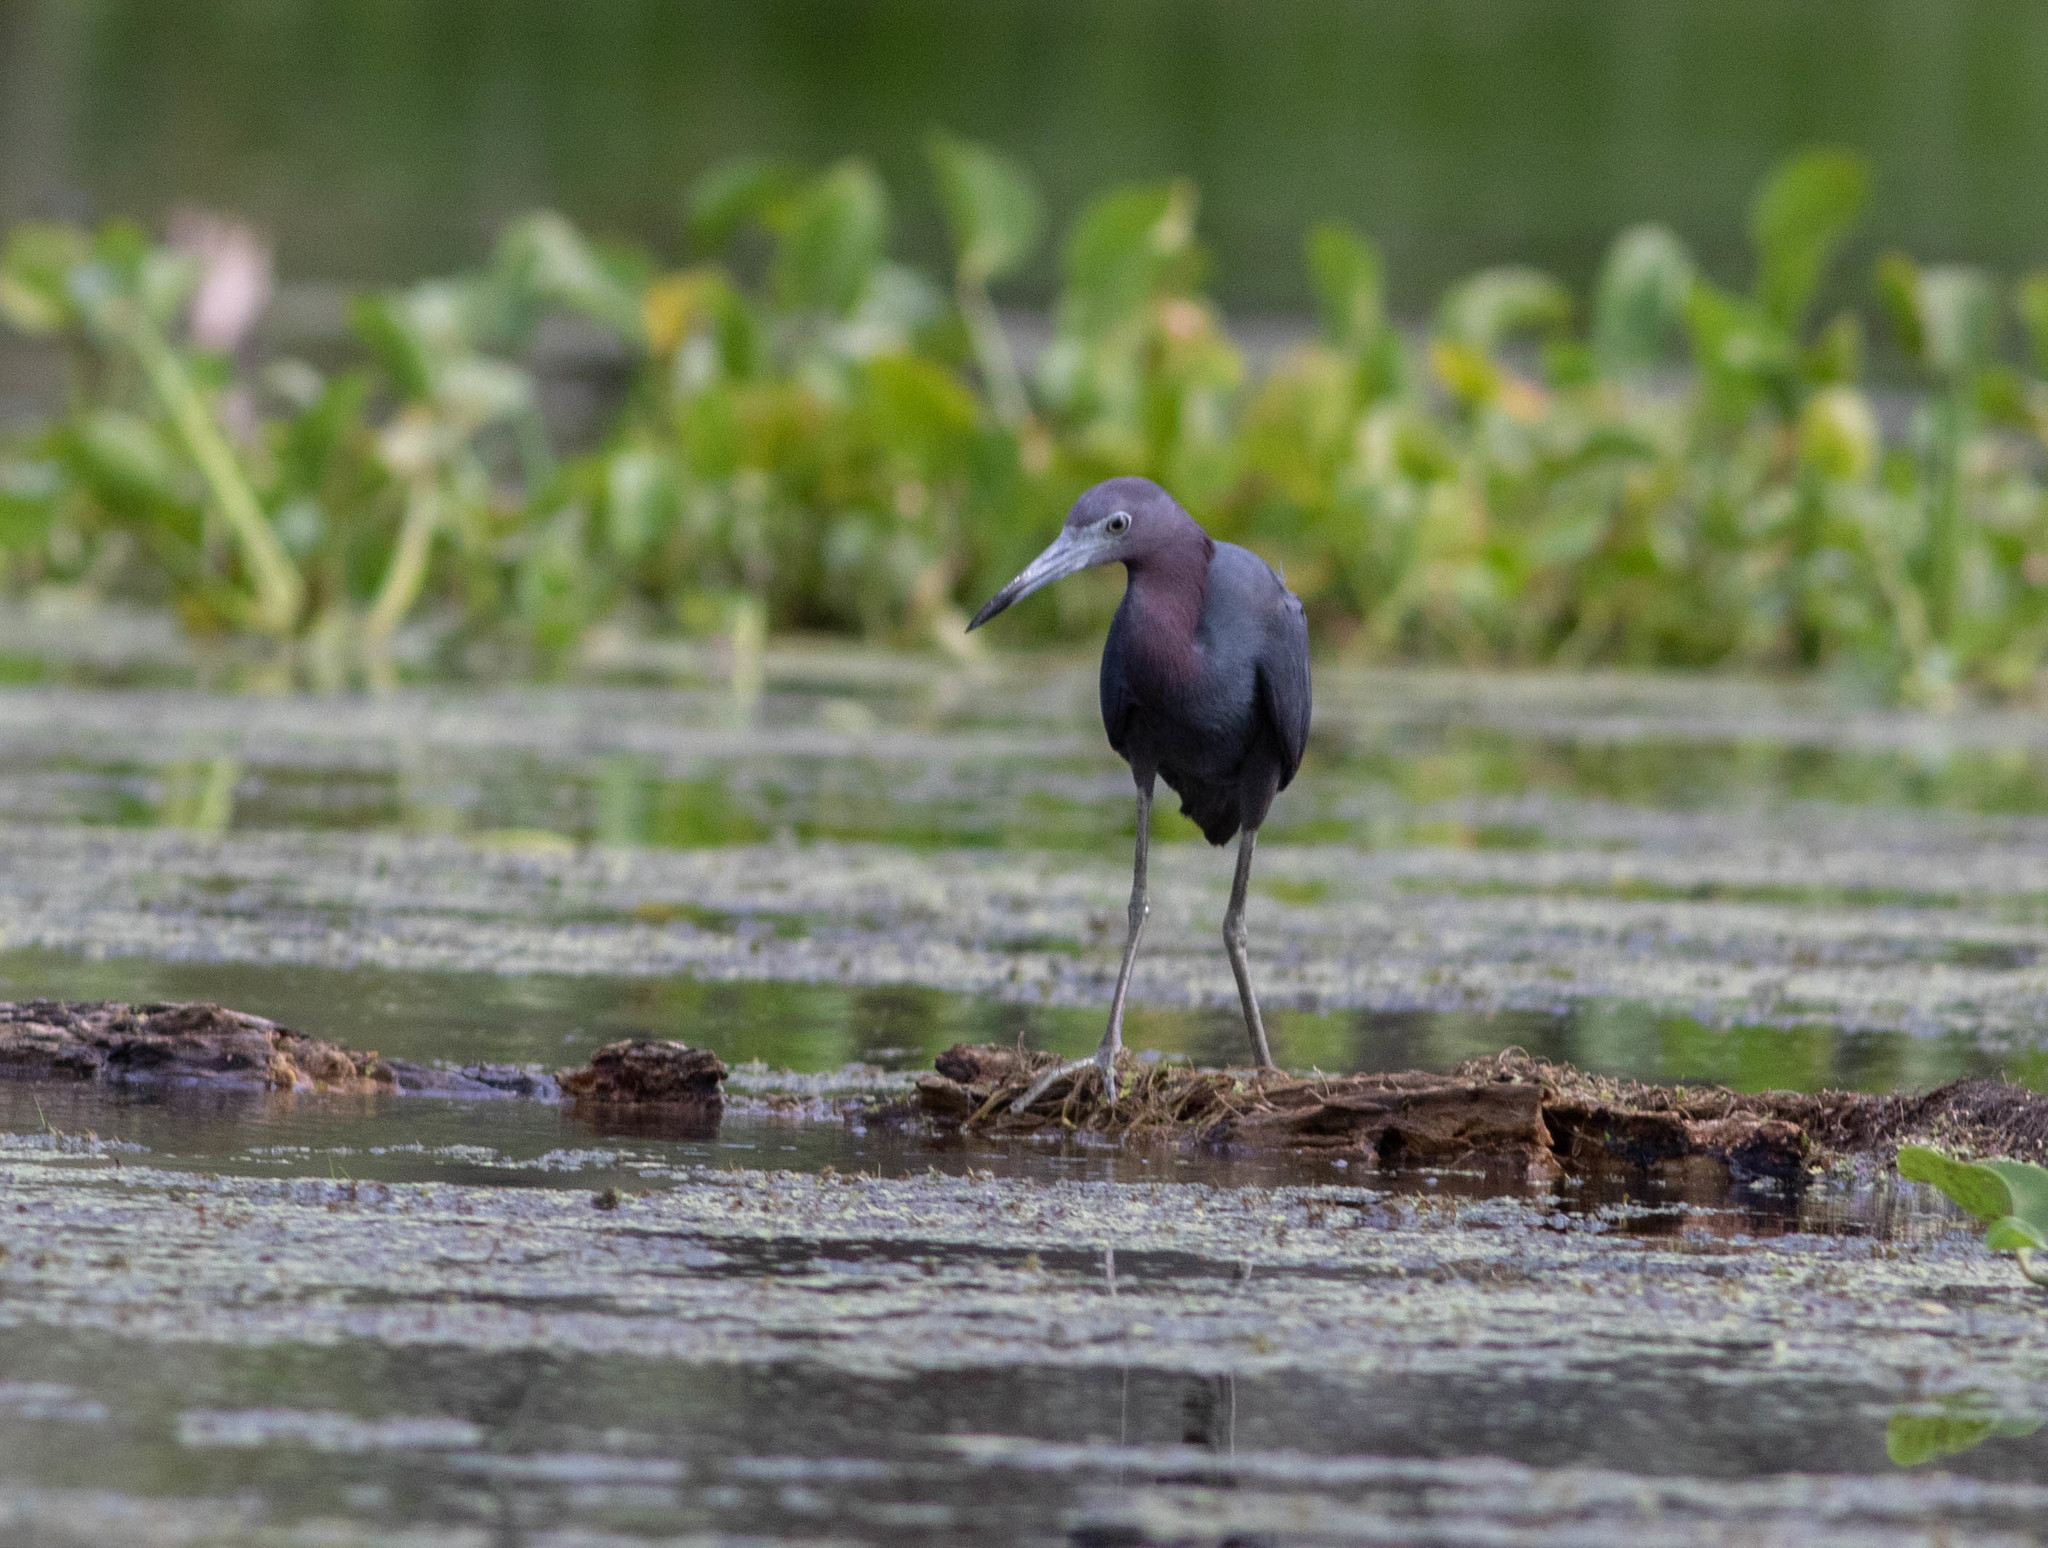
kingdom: Animalia
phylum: Chordata
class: Aves
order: Pelecaniformes
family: Ardeidae
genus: Egretta
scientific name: Egretta caerulea
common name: Little blue heron
